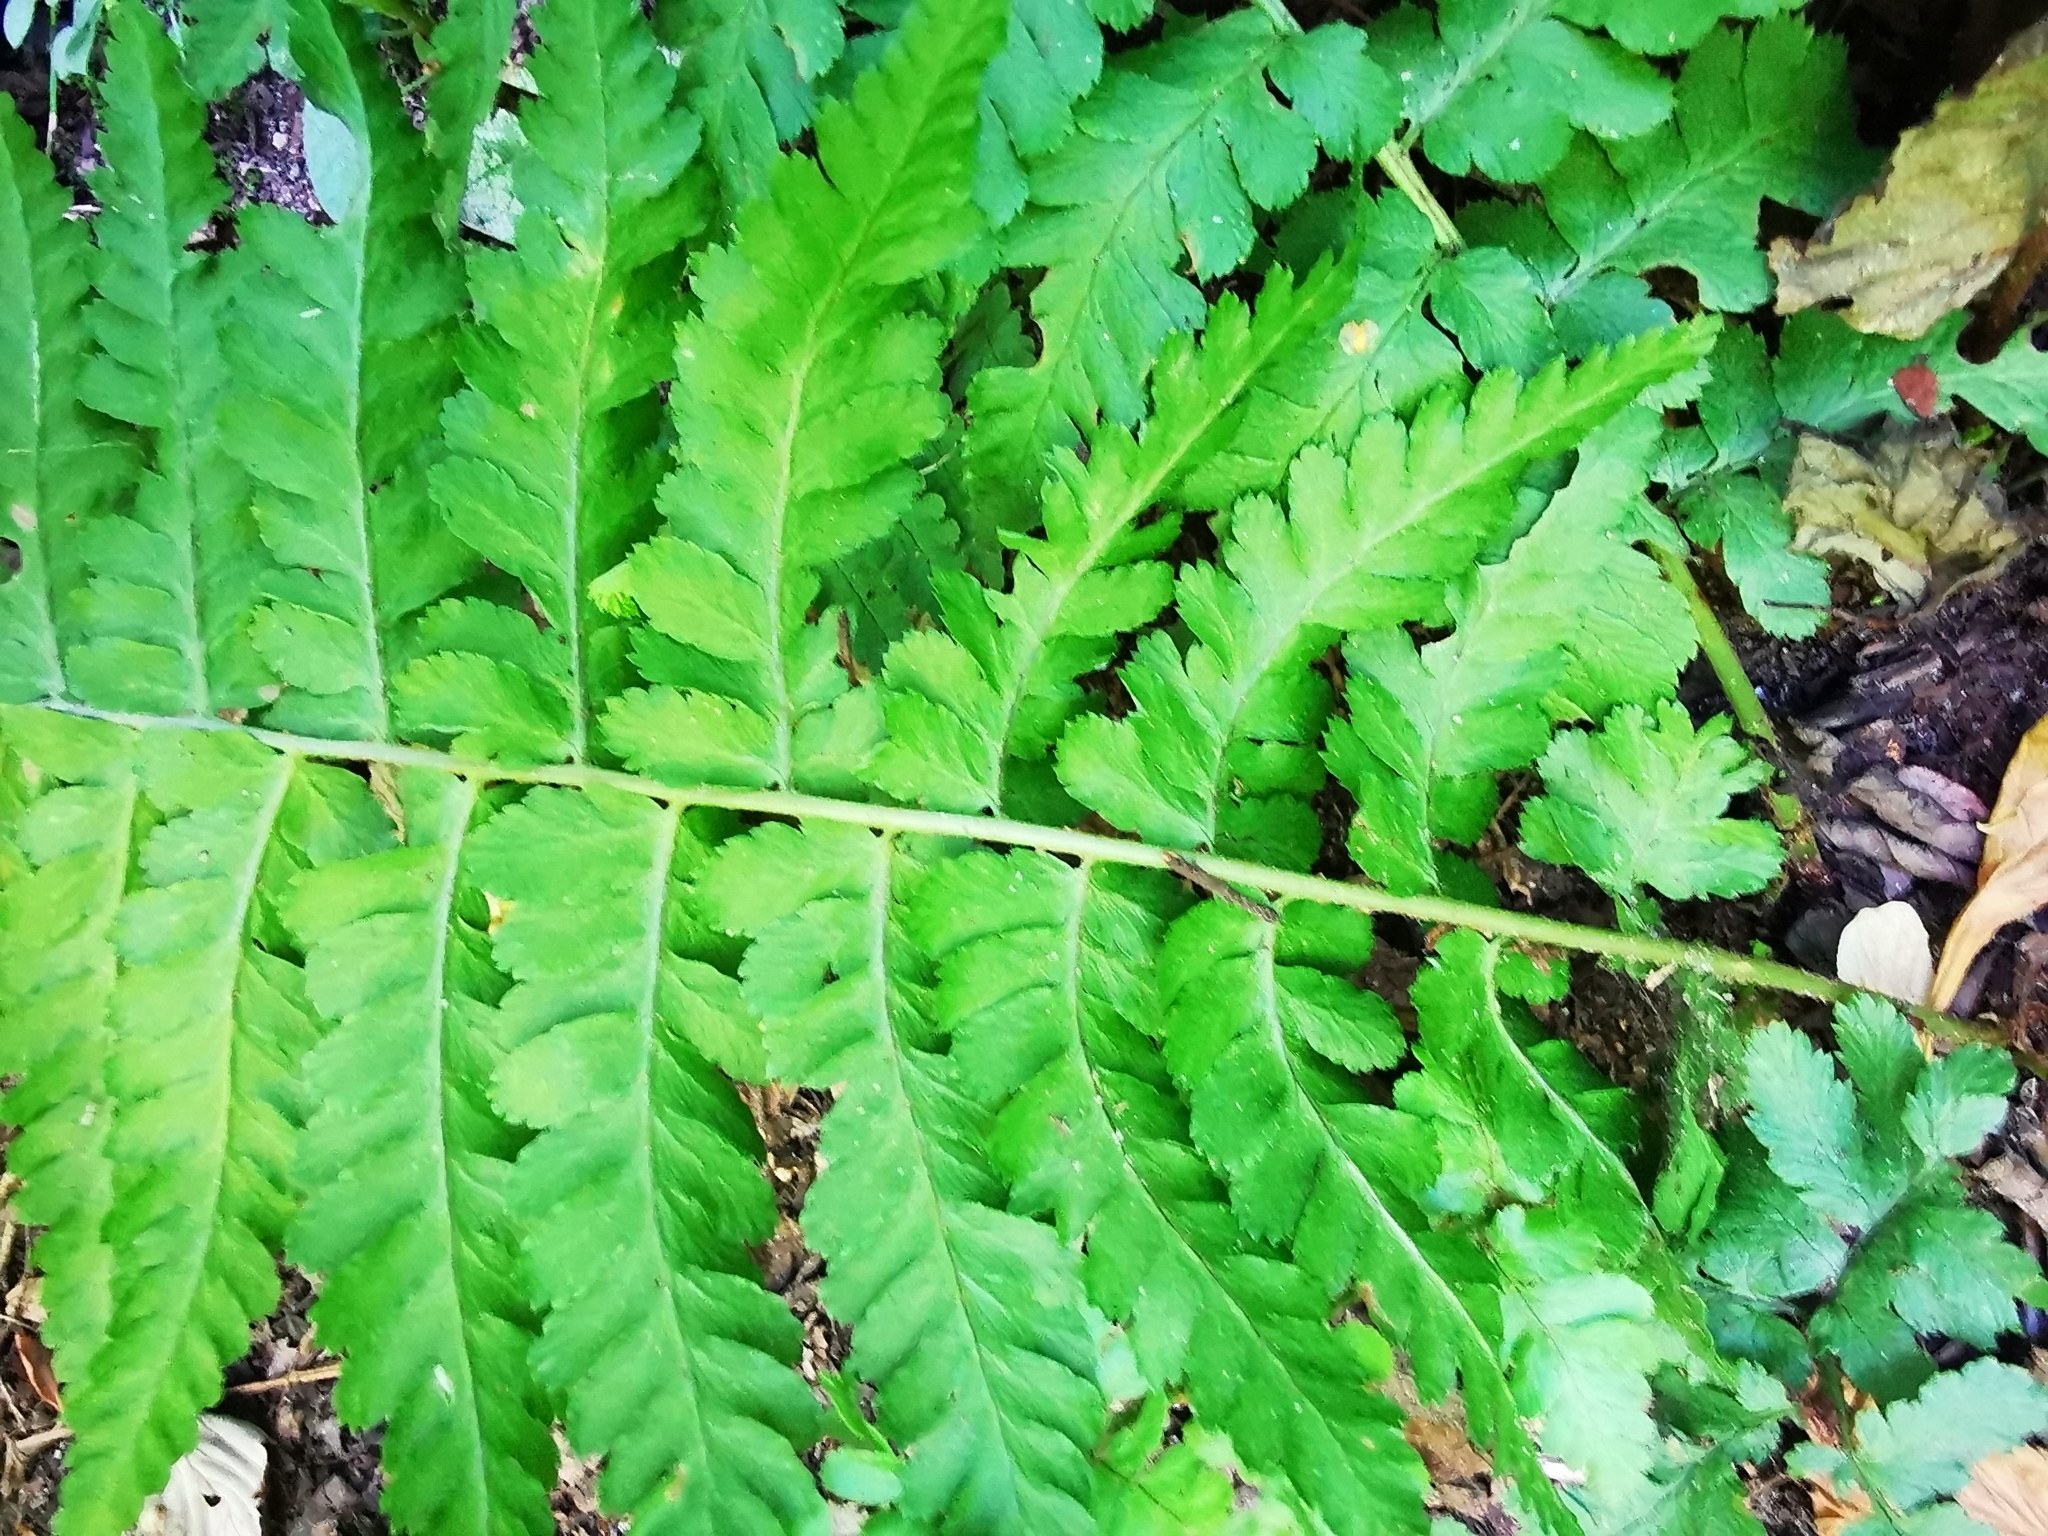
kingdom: Plantae
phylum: Tracheophyta
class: Polypodiopsida
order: Polypodiales
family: Dryopteridaceae
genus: Dryopteris
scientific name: Dryopteris filix-mas
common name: Male fern
